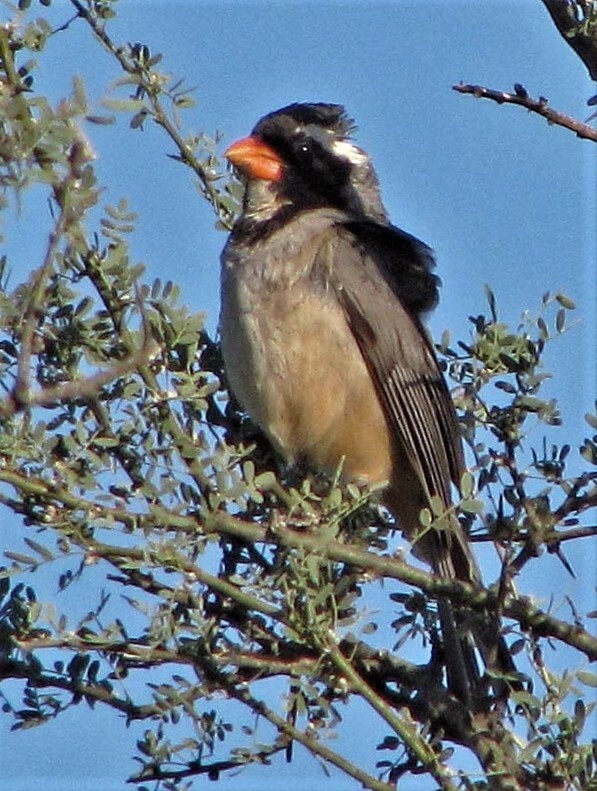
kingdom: Animalia
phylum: Chordata
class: Aves
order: Passeriformes
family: Thraupidae
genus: Saltator
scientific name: Saltator aurantiirostris
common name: Golden-billed saltator
